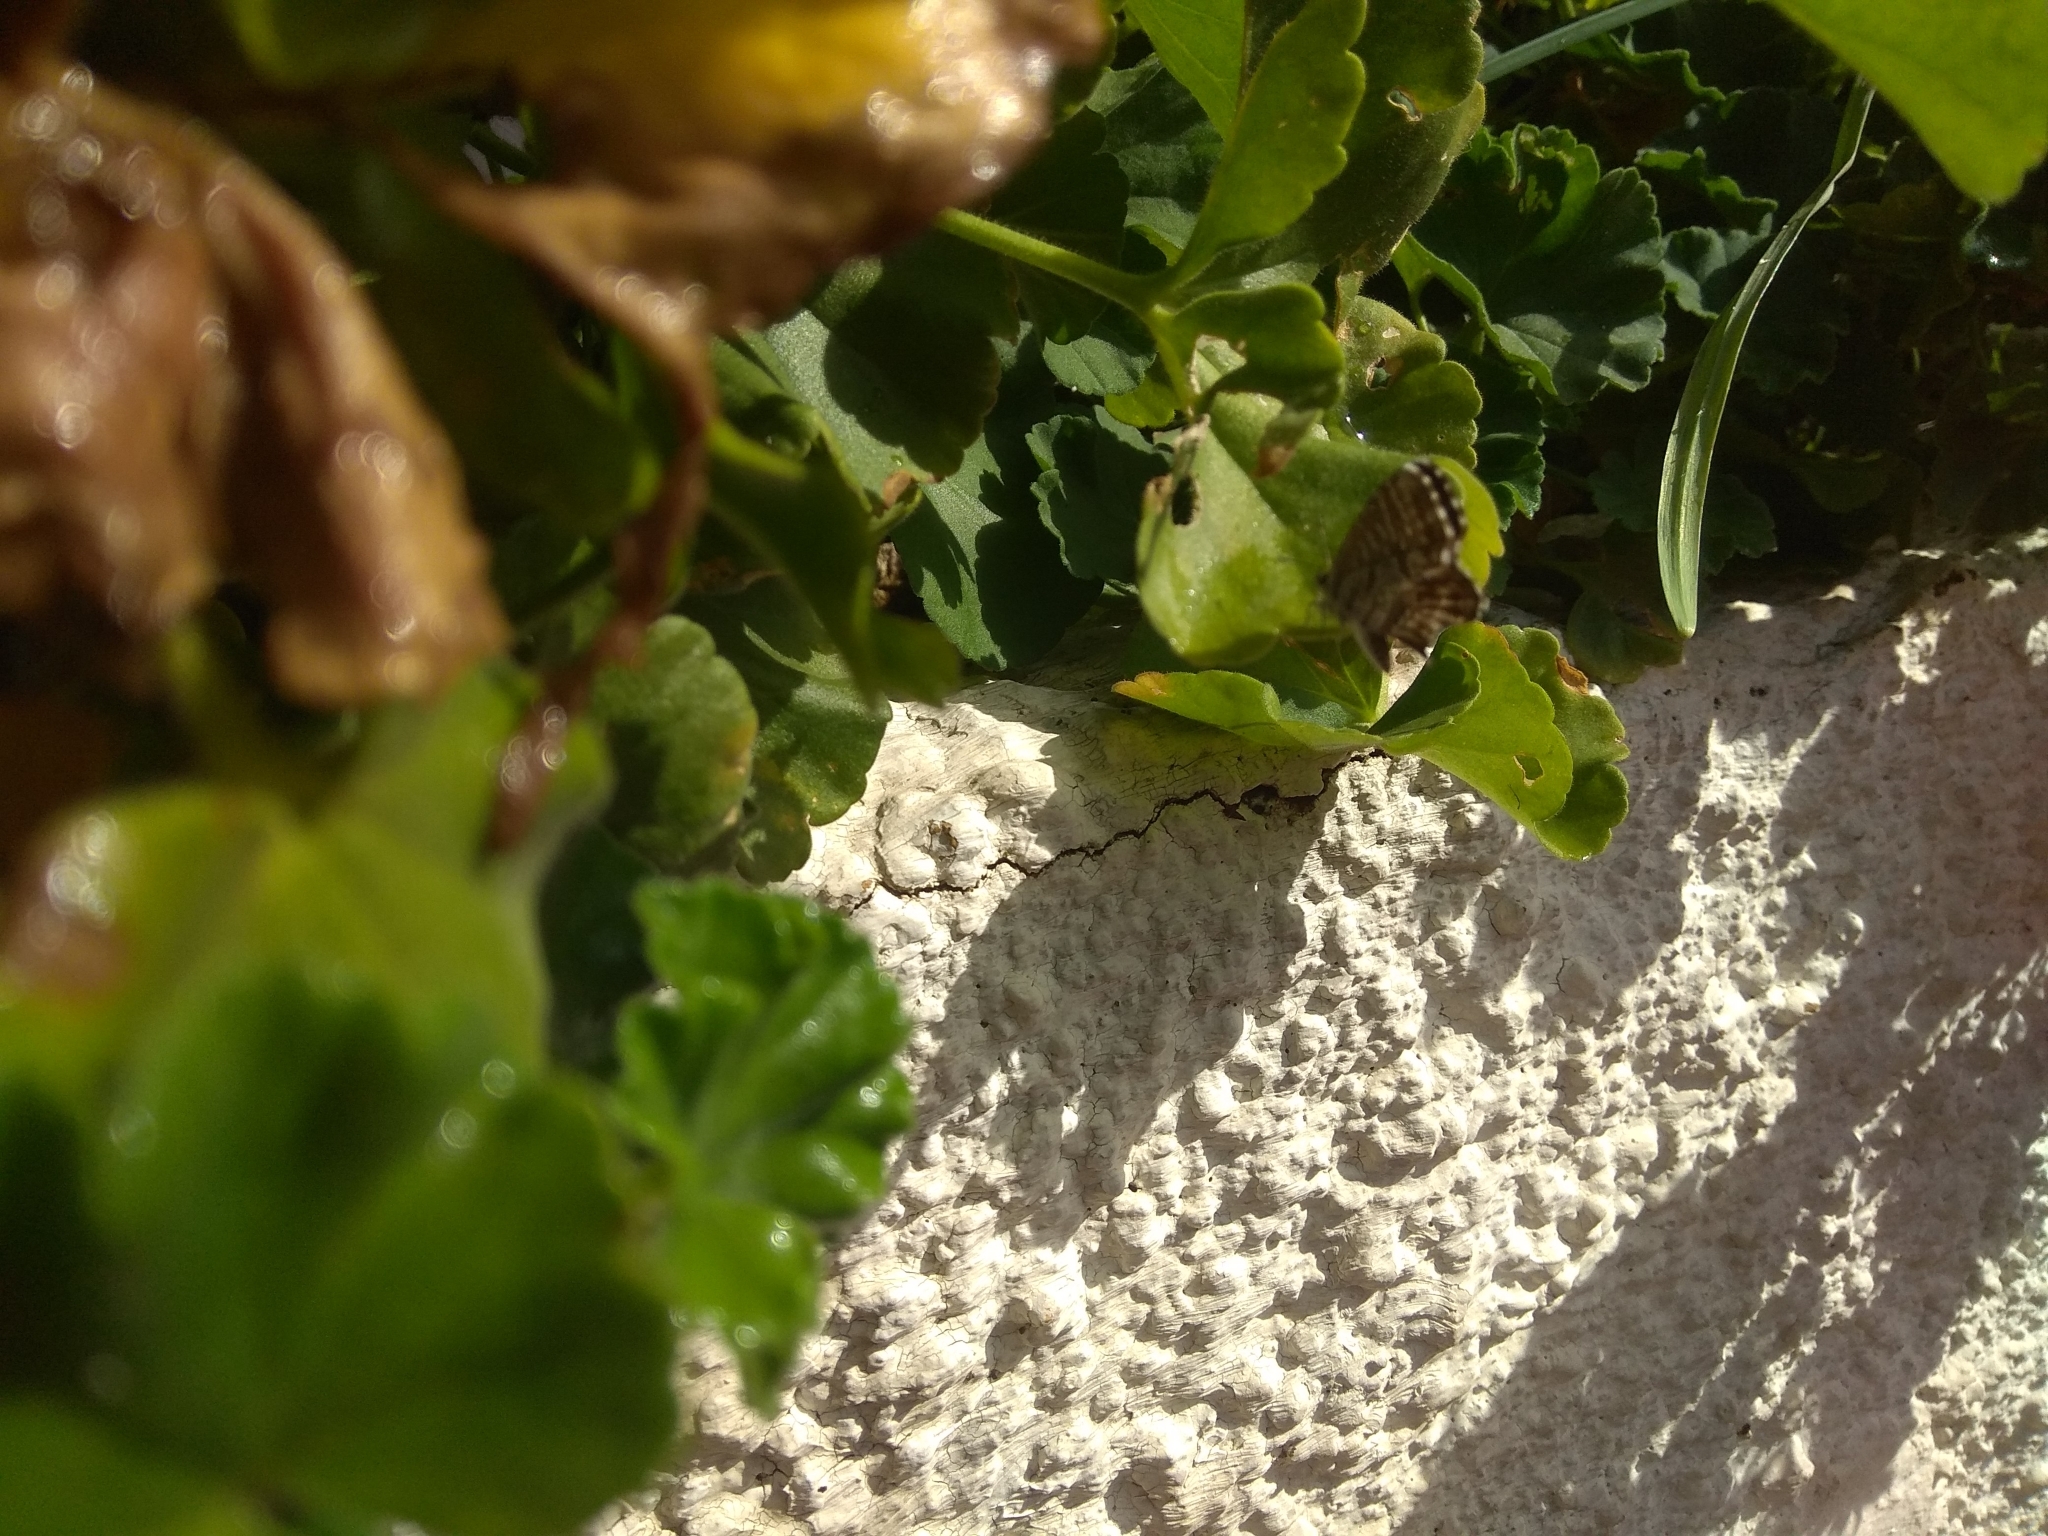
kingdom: Animalia
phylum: Arthropoda
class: Insecta
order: Lepidoptera
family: Lycaenidae
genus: Cacyreus
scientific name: Cacyreus marshalli
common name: Geranium bronze
